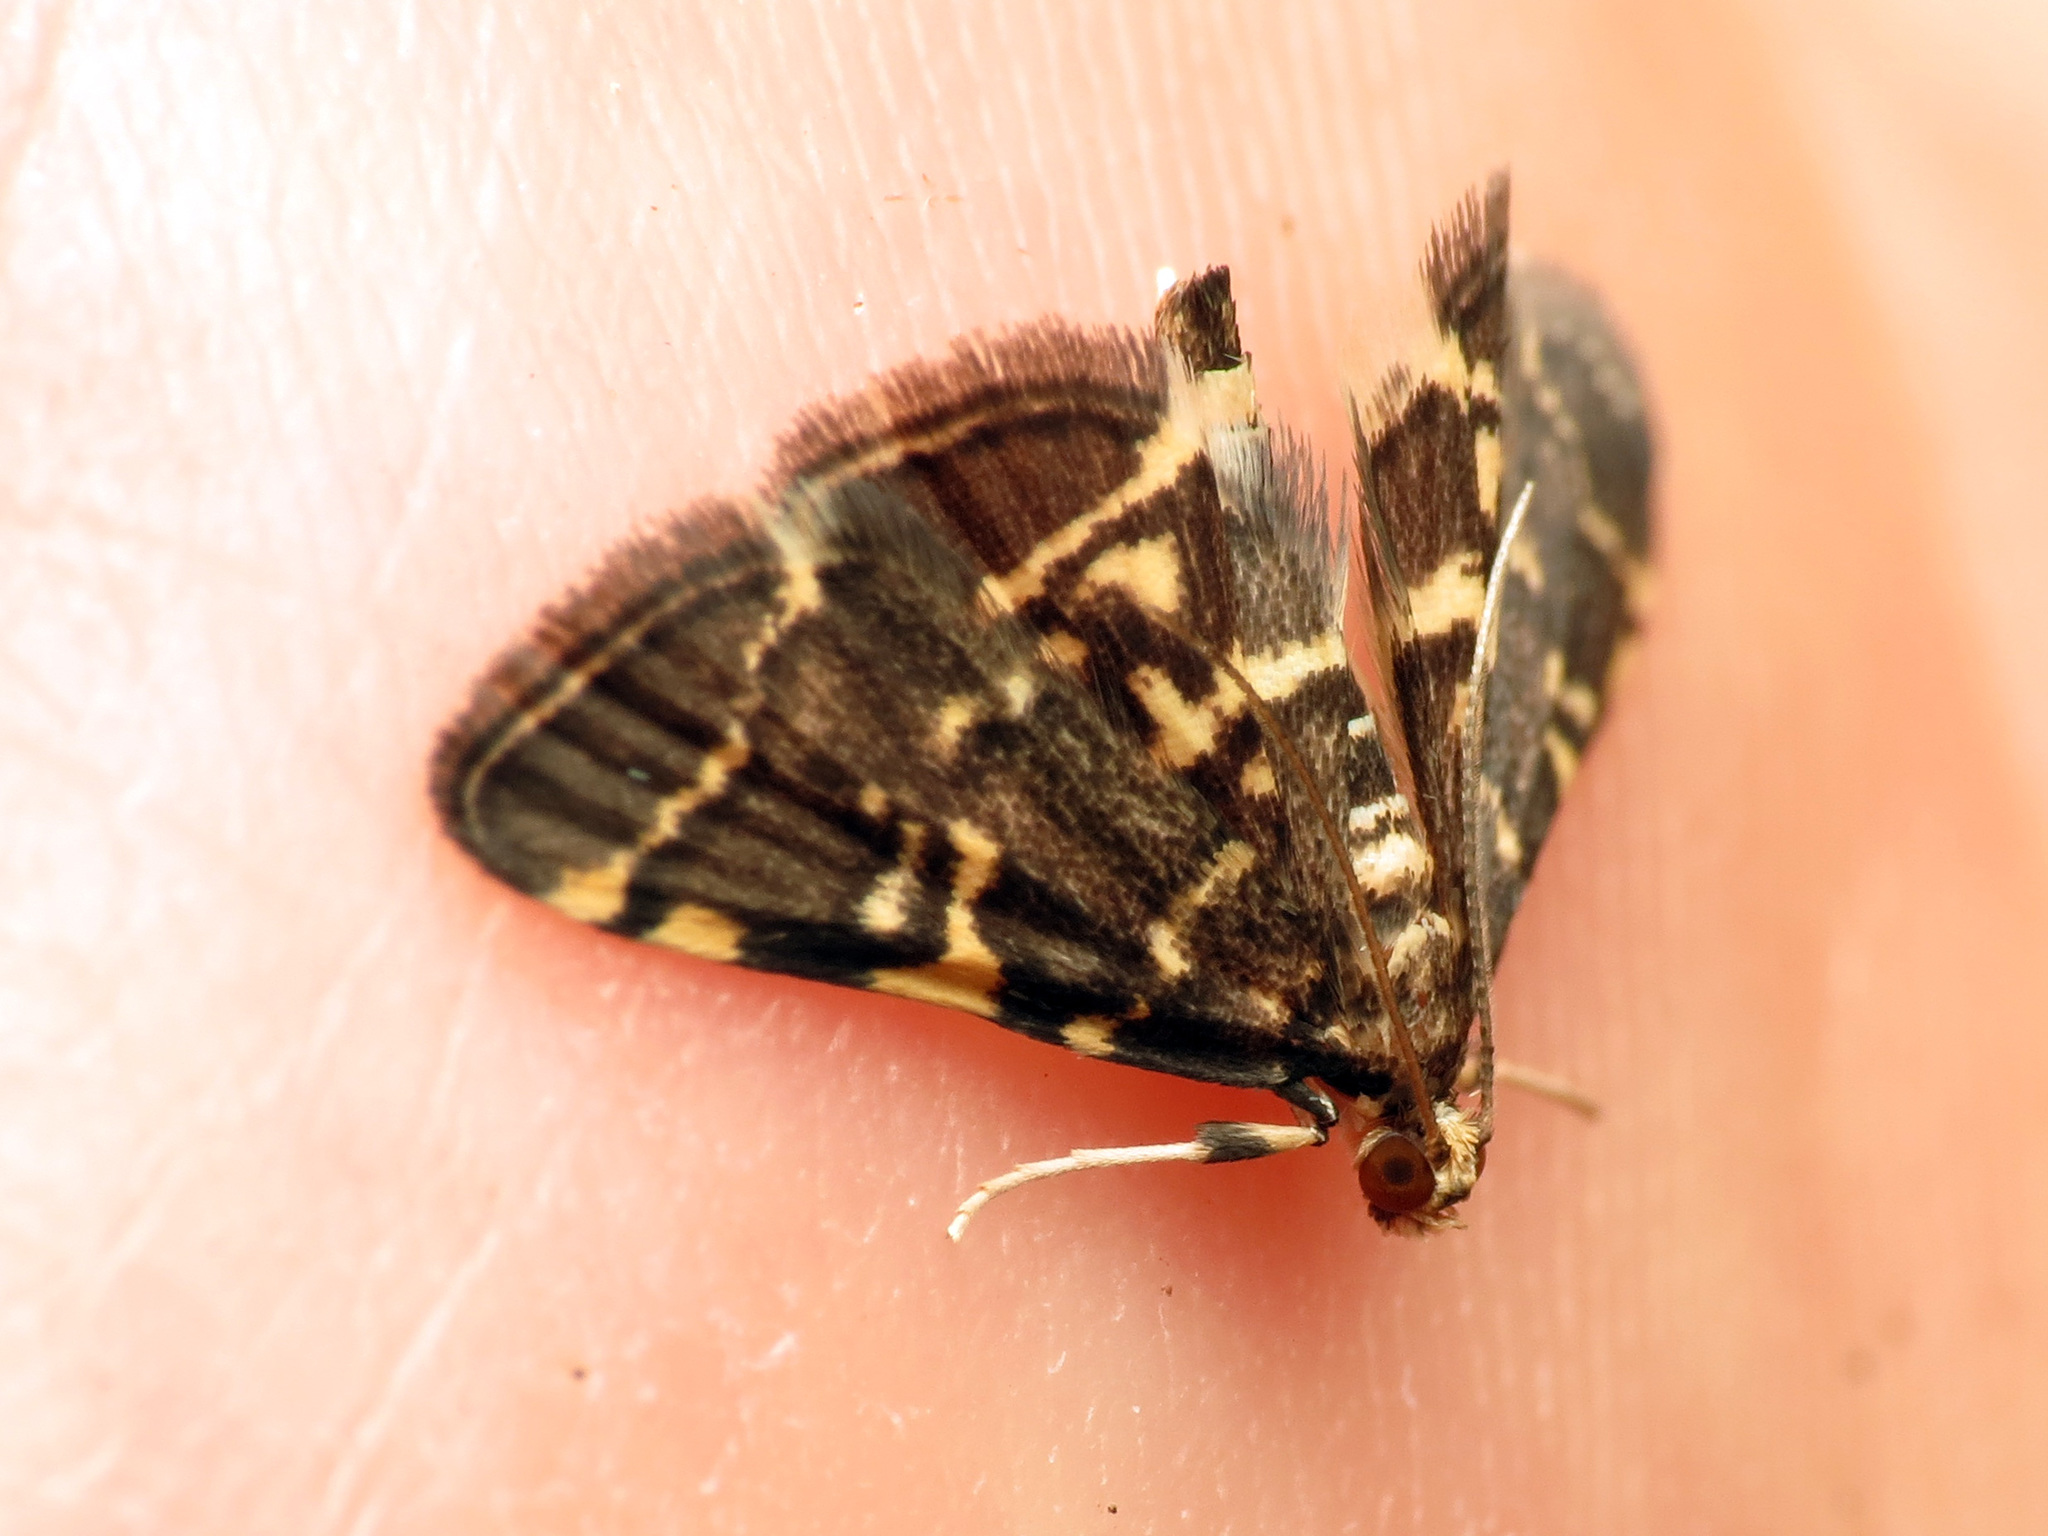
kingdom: Animalia
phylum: Arthropoda
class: Insecta
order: Lepidoptera
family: Crambidae
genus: Anageshna
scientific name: Anageshna primordialis
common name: Yellow-spotted webworm moth
